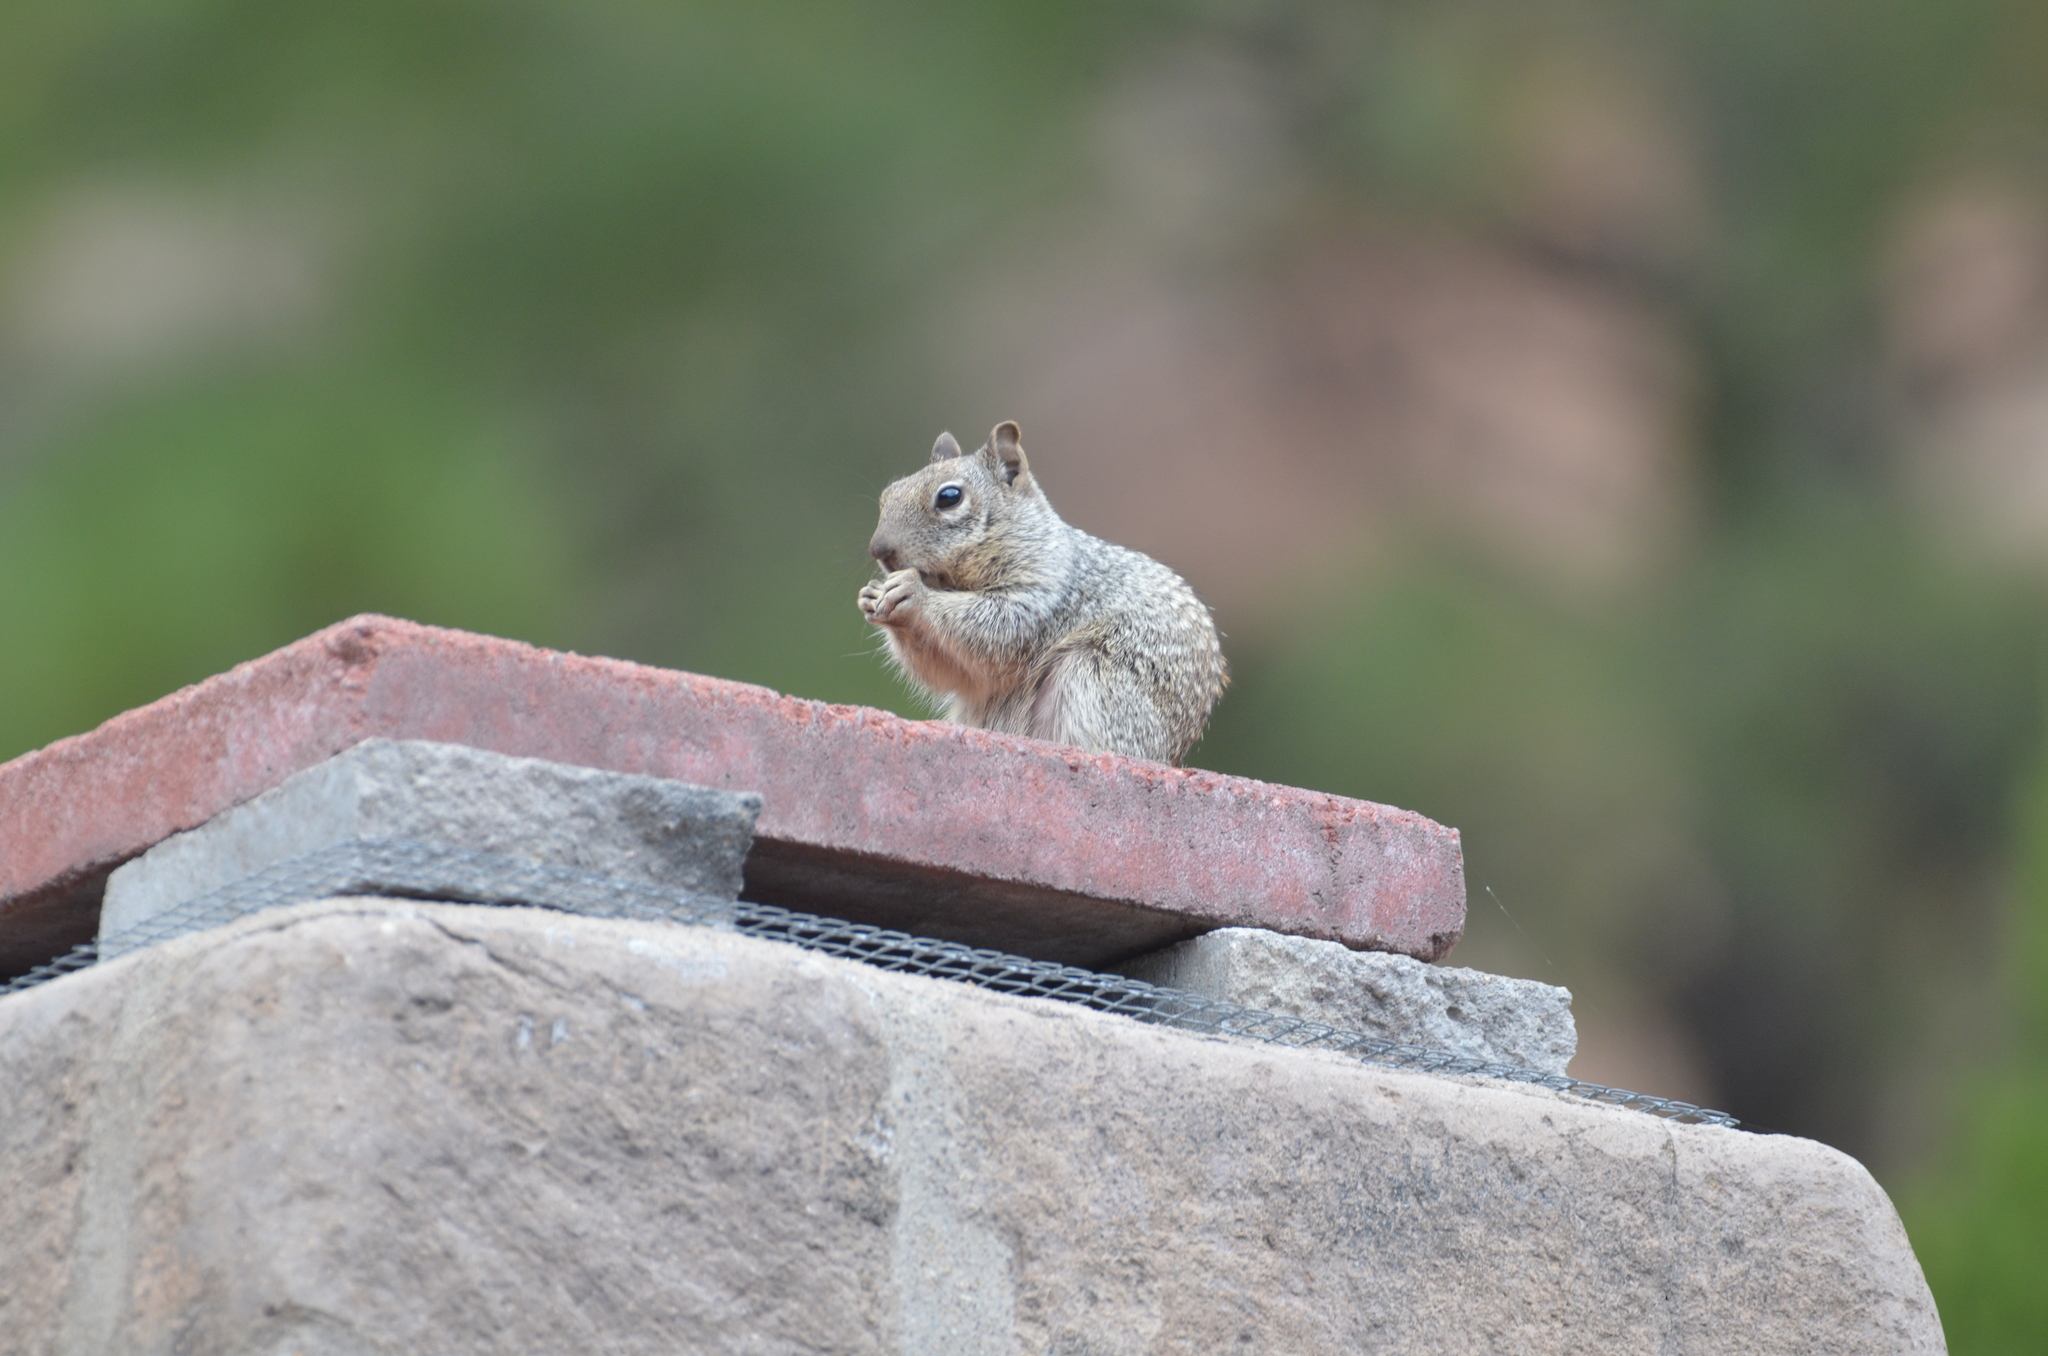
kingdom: Animalia
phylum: Chordata
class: Mammalia
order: Rodentia
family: Sciuridae
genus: Otospermophilus
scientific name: Otospermophilus variegatus
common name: Rock squirrel
